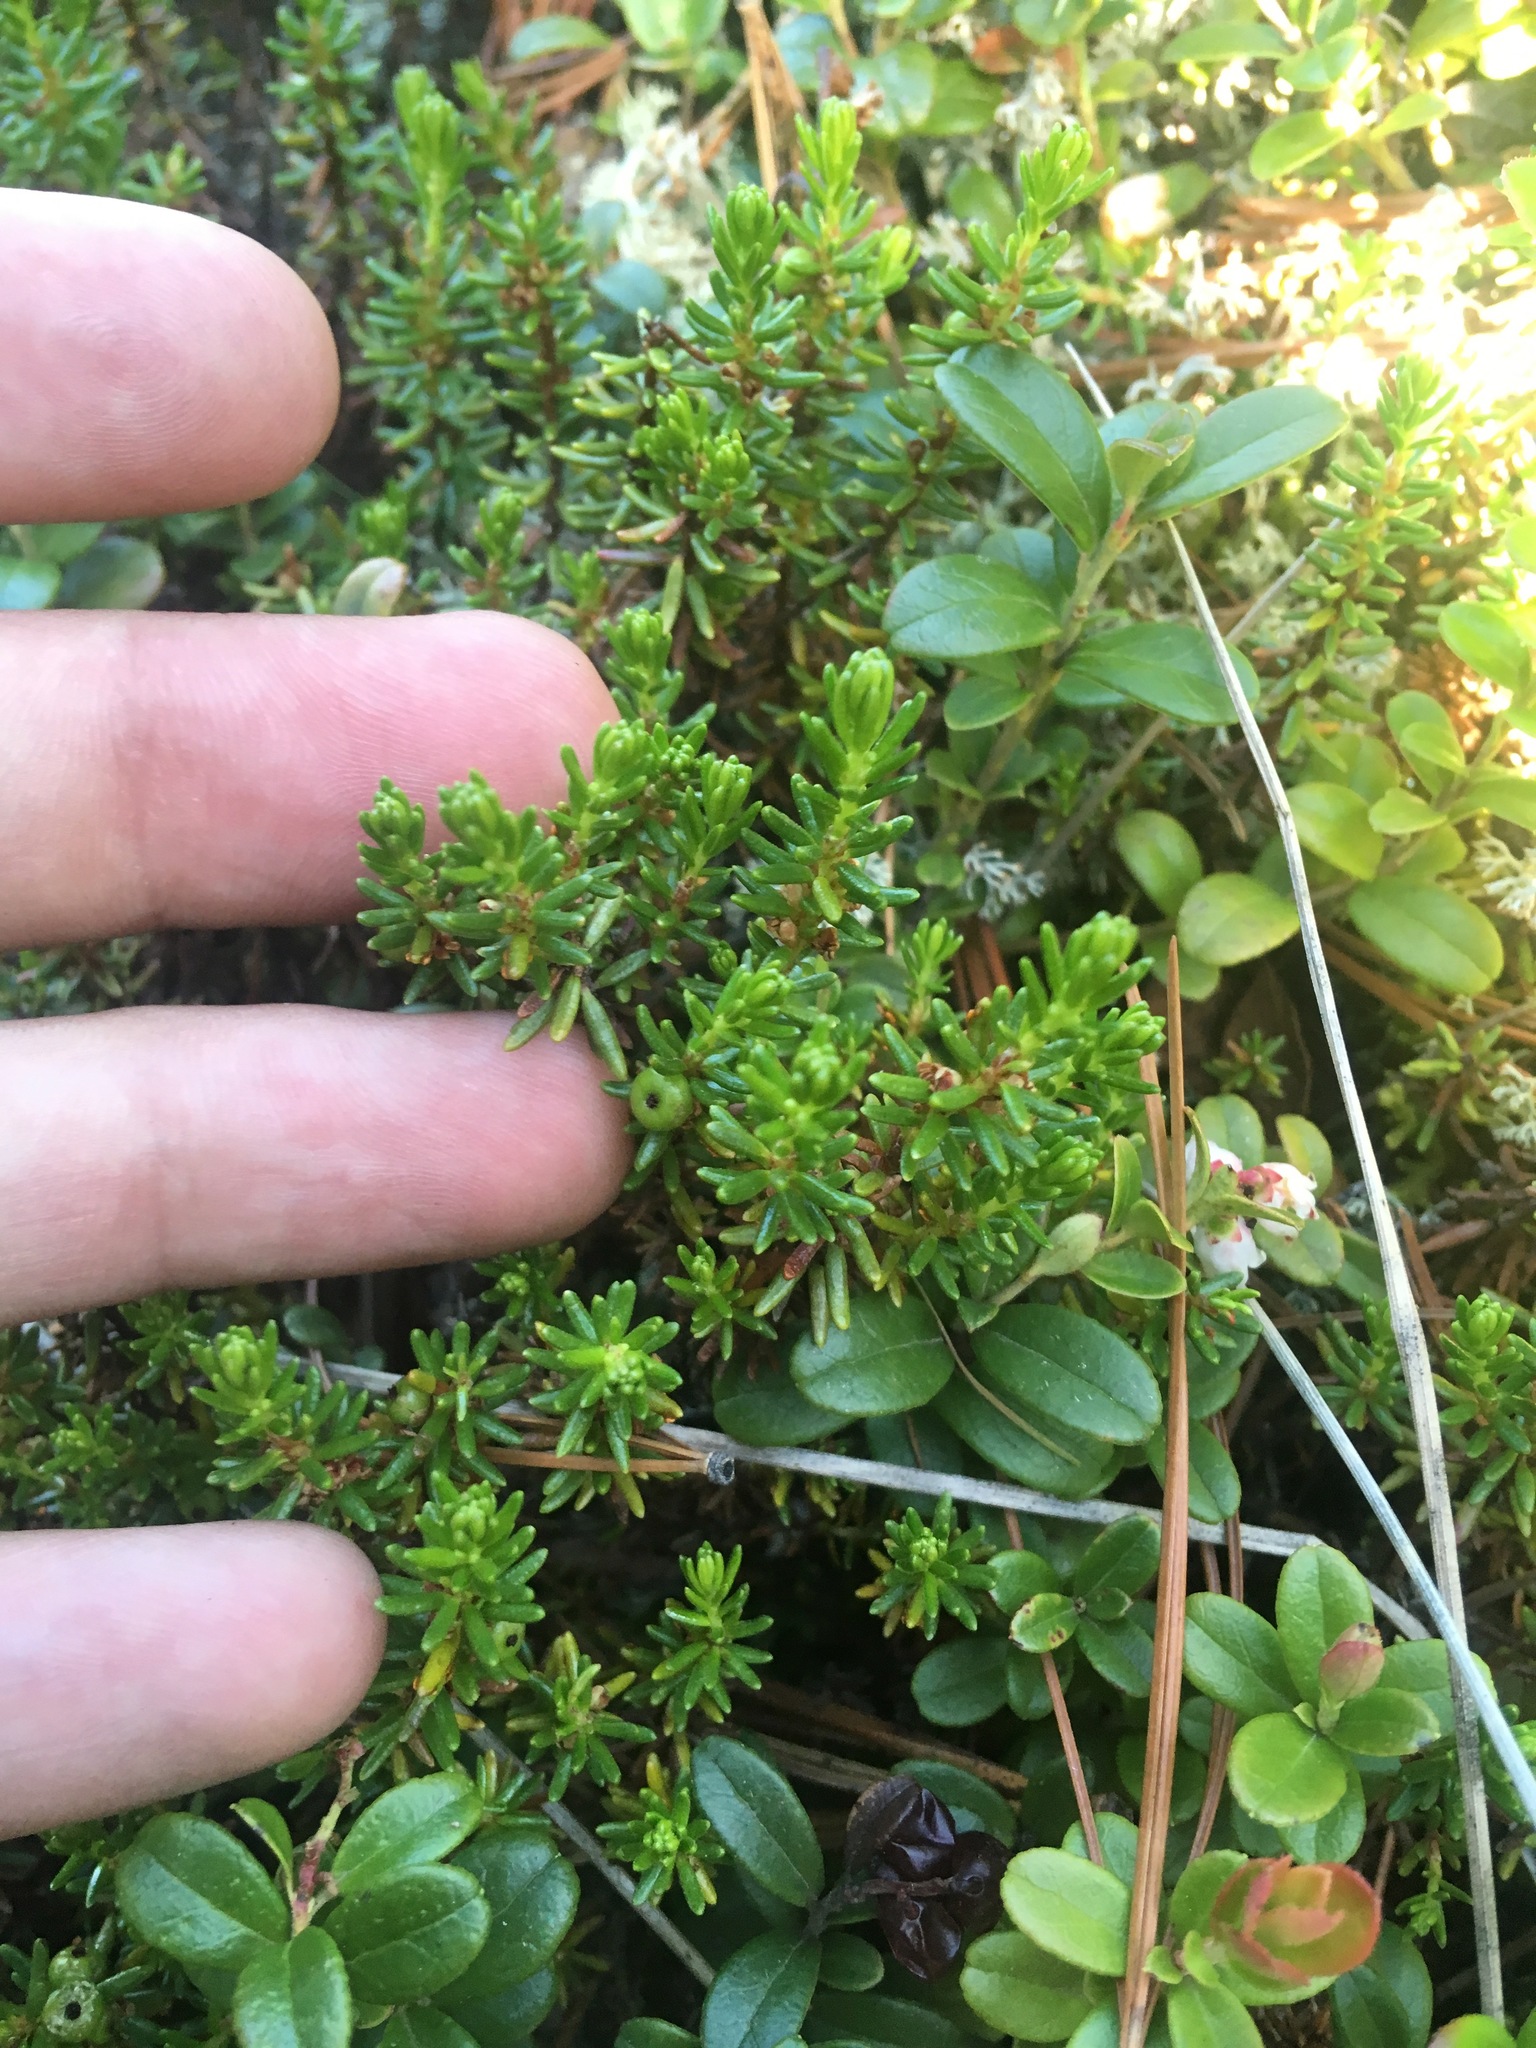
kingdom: Plantae
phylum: Tracheophyta
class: Magnoliopsida
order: Ericales
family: Ericaceae
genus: Empetrum
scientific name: Empetrum nigrum
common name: Black crowberry
